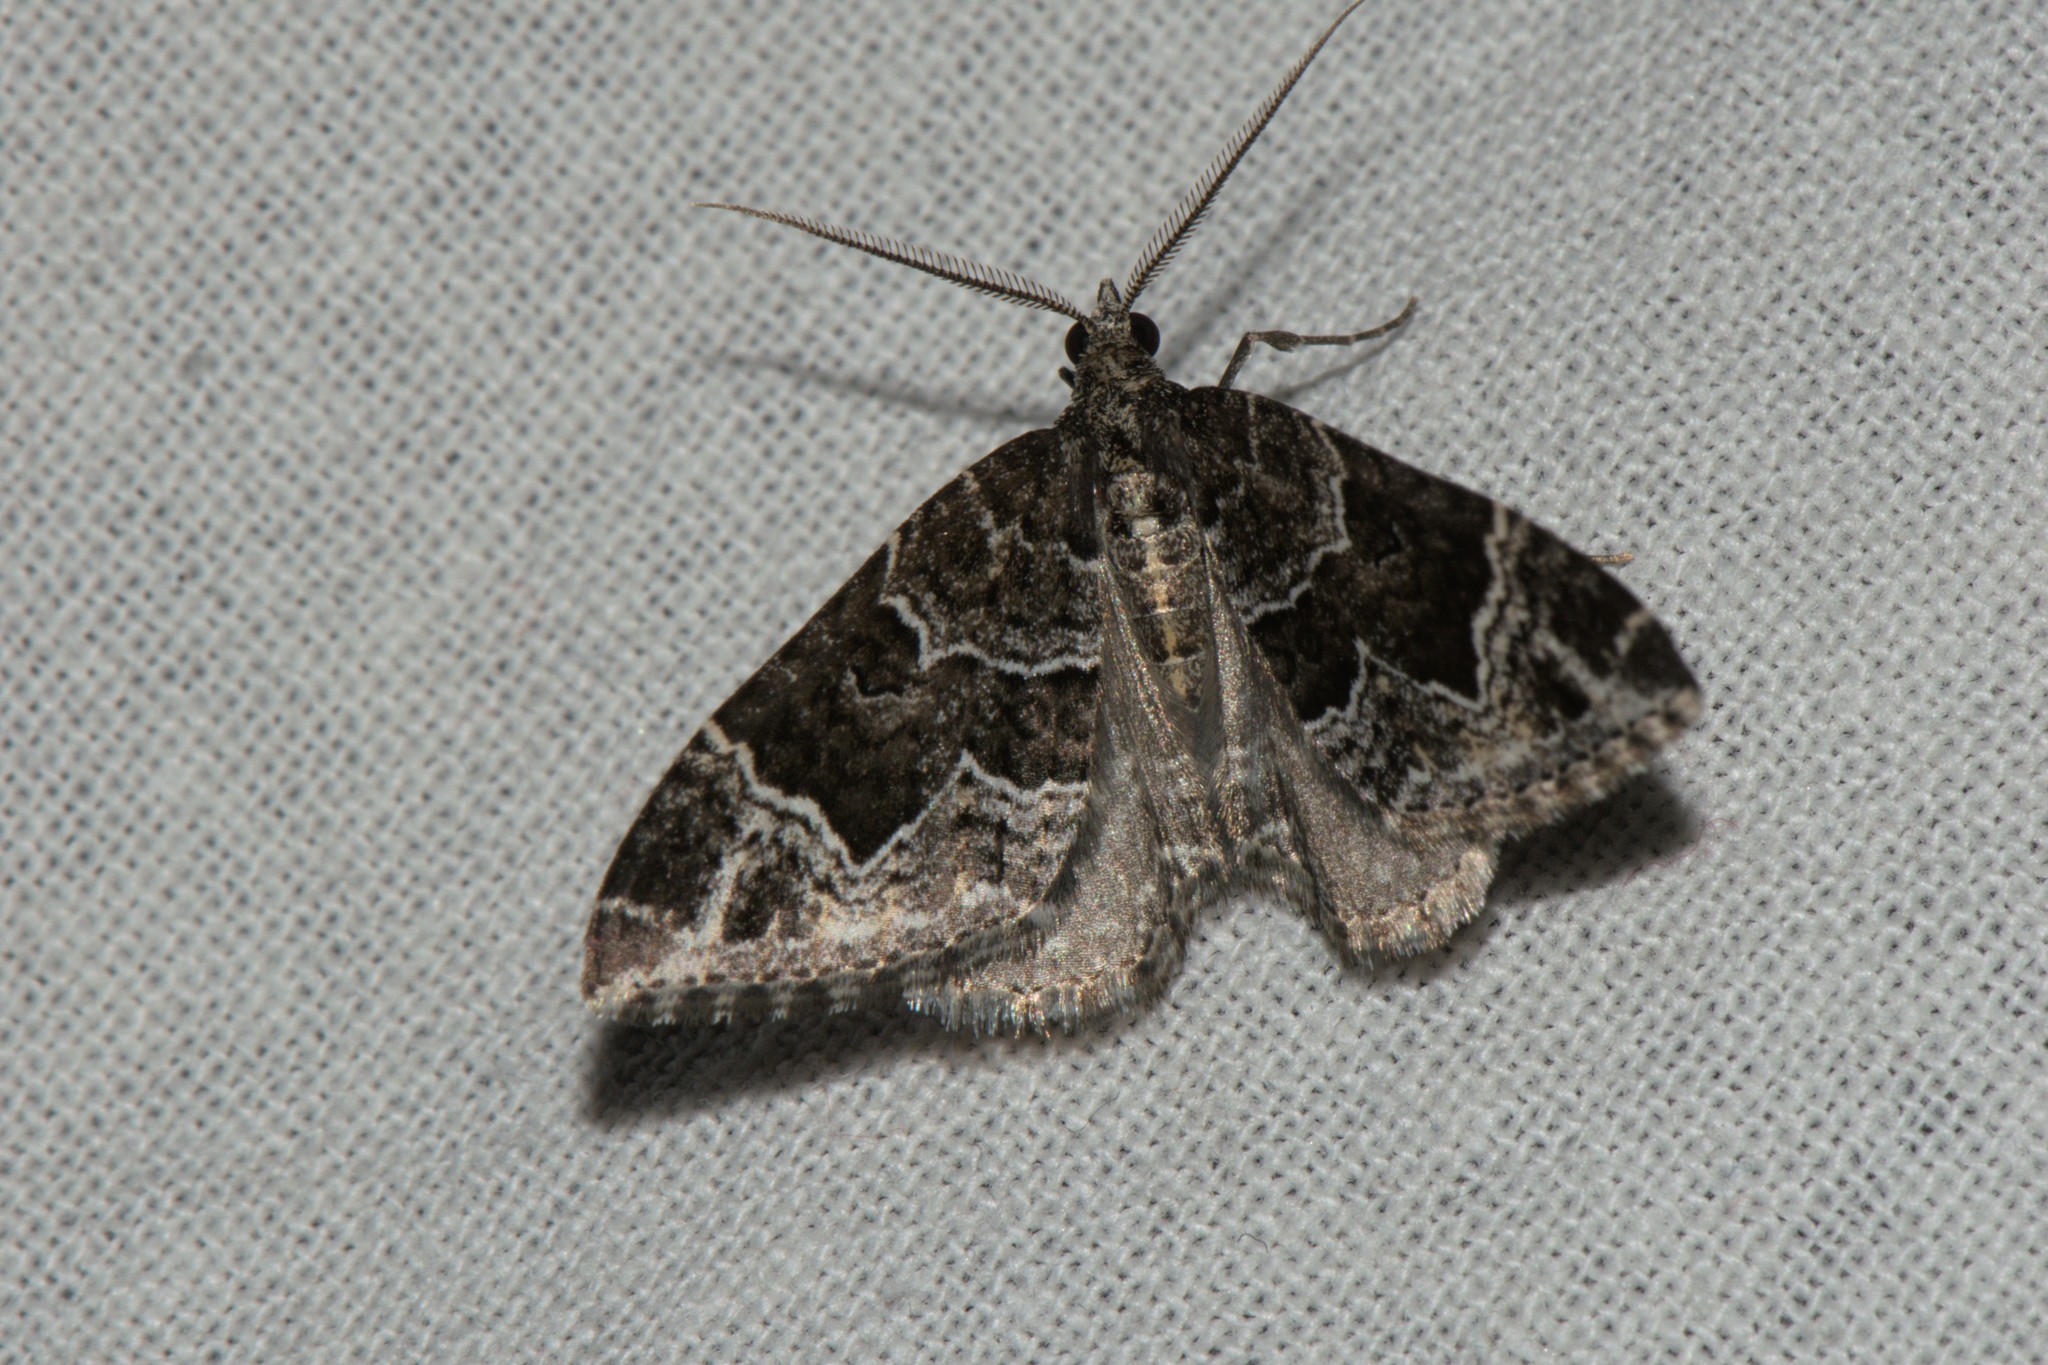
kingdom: Animalia
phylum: Arthropoda
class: Insecta
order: Lepidoptera
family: Geometridae
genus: Colostygia
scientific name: Colostygia albigirata
